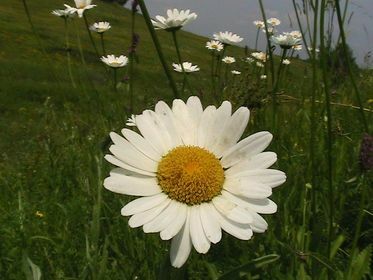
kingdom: Plantae
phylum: Tracheophyta
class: Magnoliopsida
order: Asterales
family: Asteraceae
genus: Leucanthemum
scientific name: Leucanthemum vulgare
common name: Oxeye daisy
